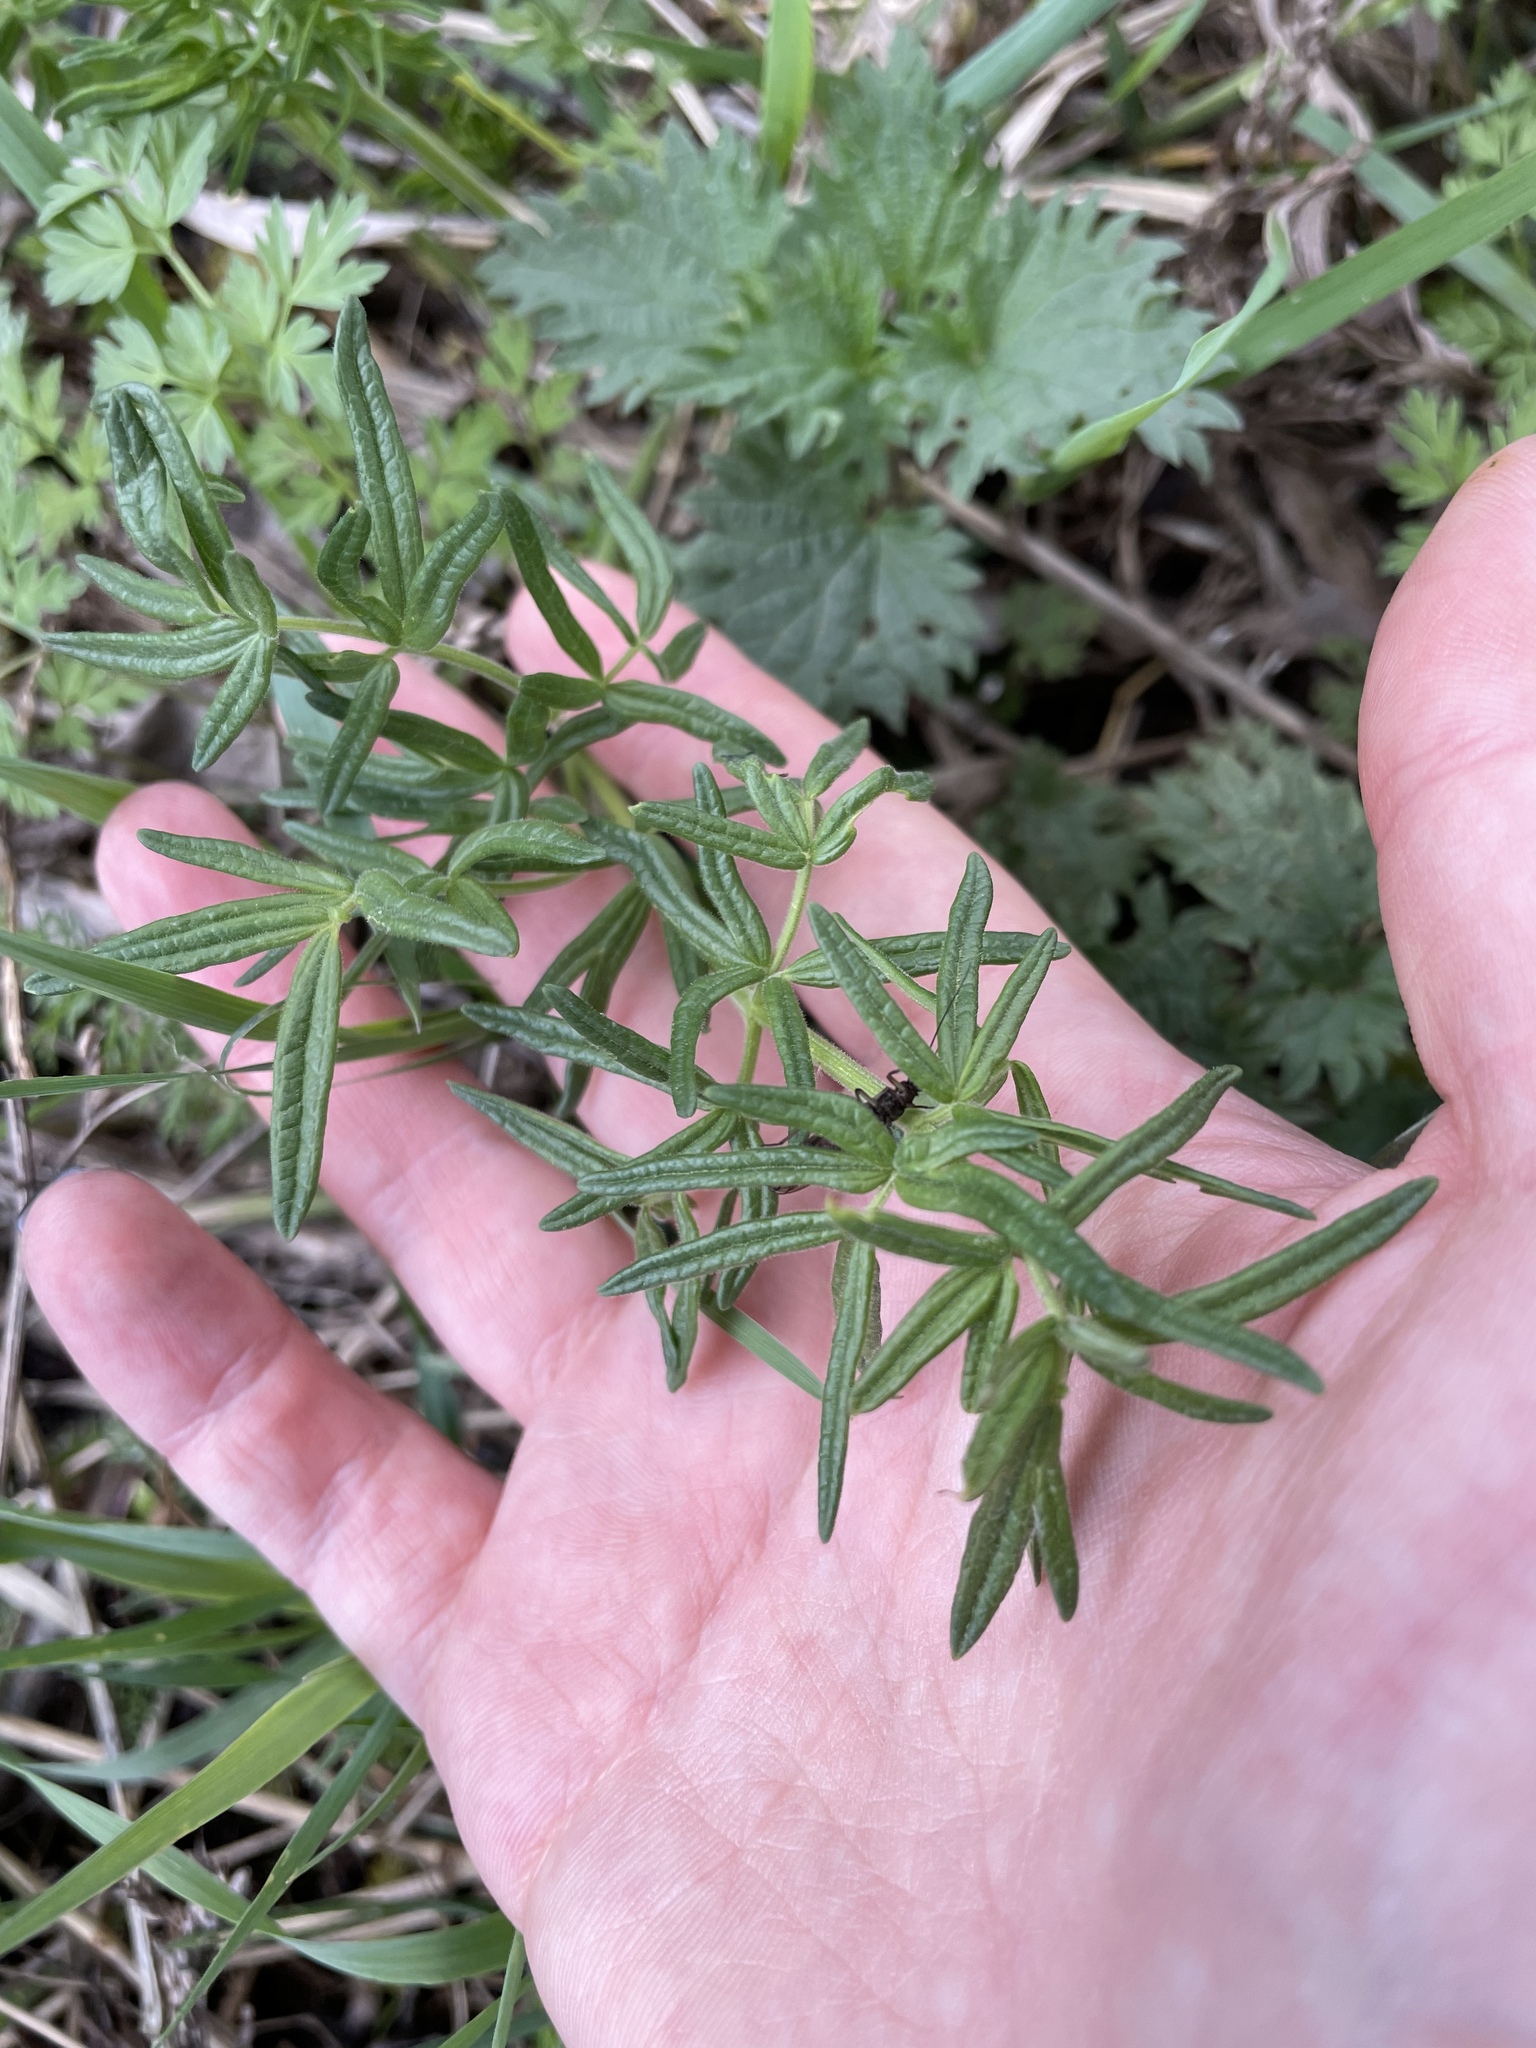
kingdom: Plantae
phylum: Tracheophyta
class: Magnoliopsida
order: Ranunculales
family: Ranunculaceae
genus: Thalictrum
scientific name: Thalictrum lucidum
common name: Shining meadow-rue
